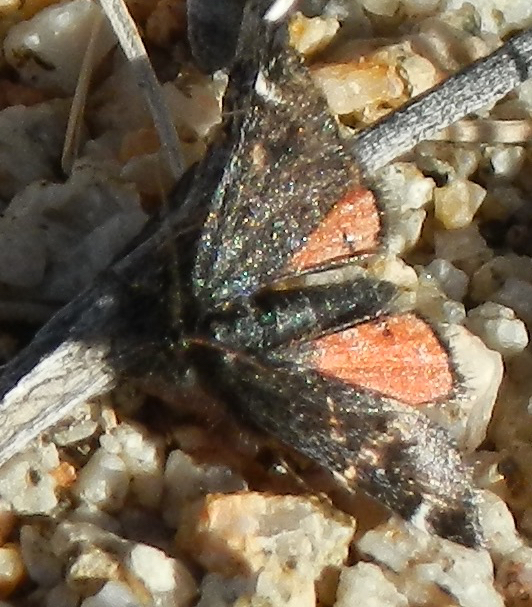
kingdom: Animalia
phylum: Arthropoda
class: Insecta
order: Lepidoptera
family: Crambidae
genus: Pyrausta
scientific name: Pyrausta dapalis
